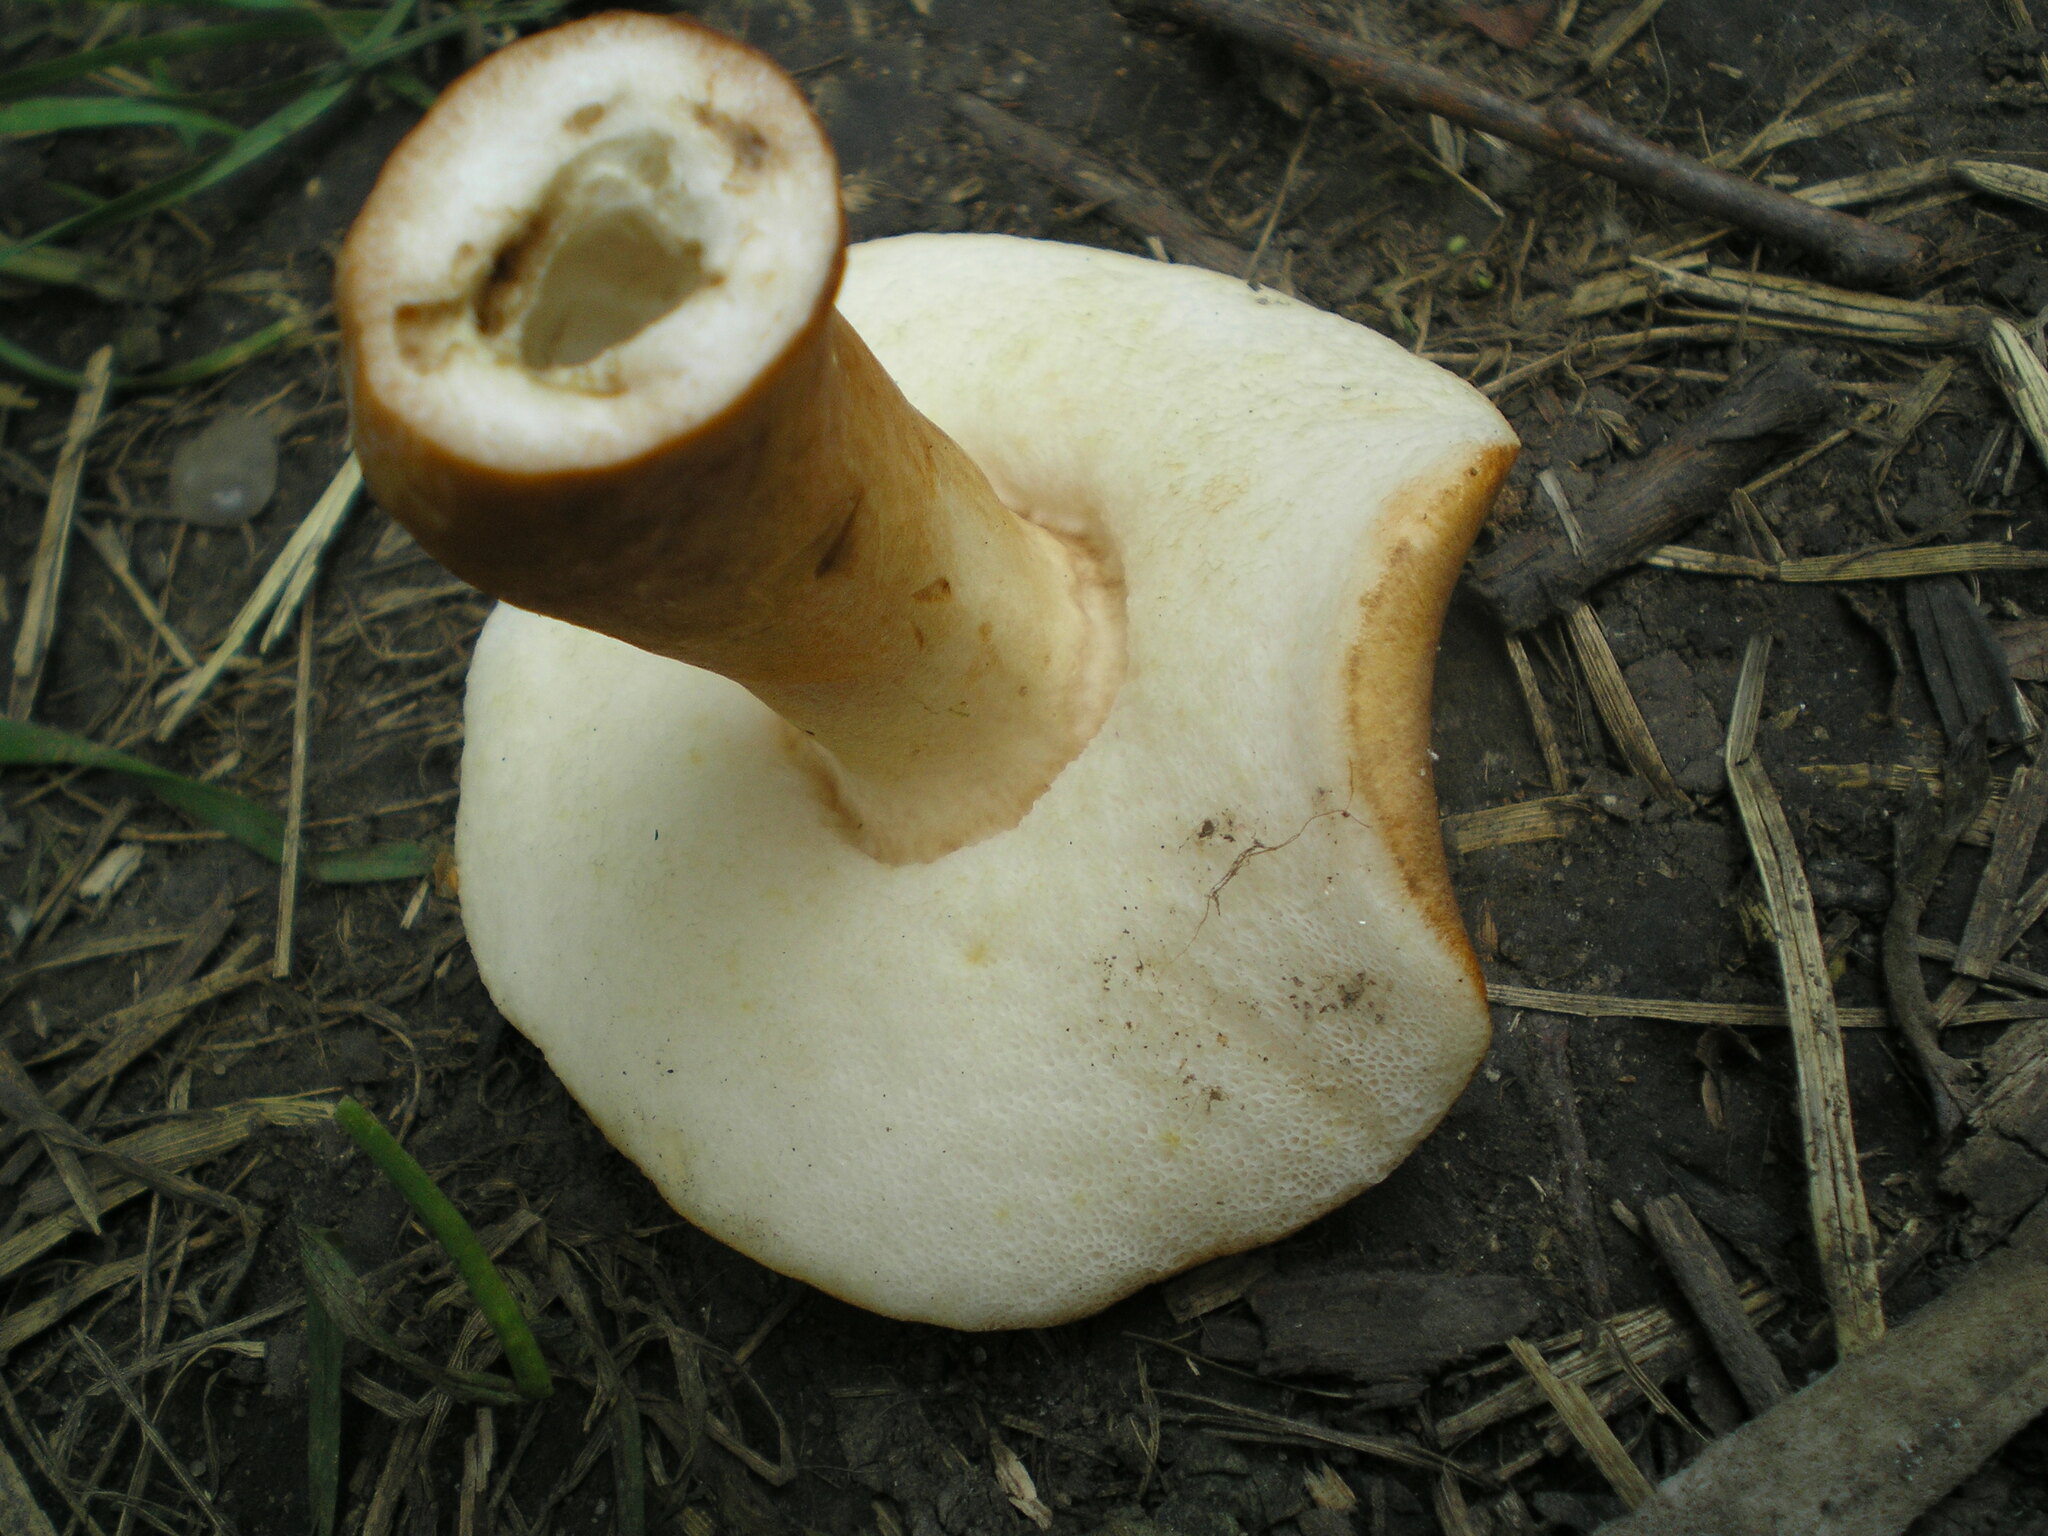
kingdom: Fungi
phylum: Basidiomycota
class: Agaricomycetes
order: Boletales
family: Gyroporaceae
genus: Gyroporus
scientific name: Gyroporus castaneus
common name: Chestnut bolete
